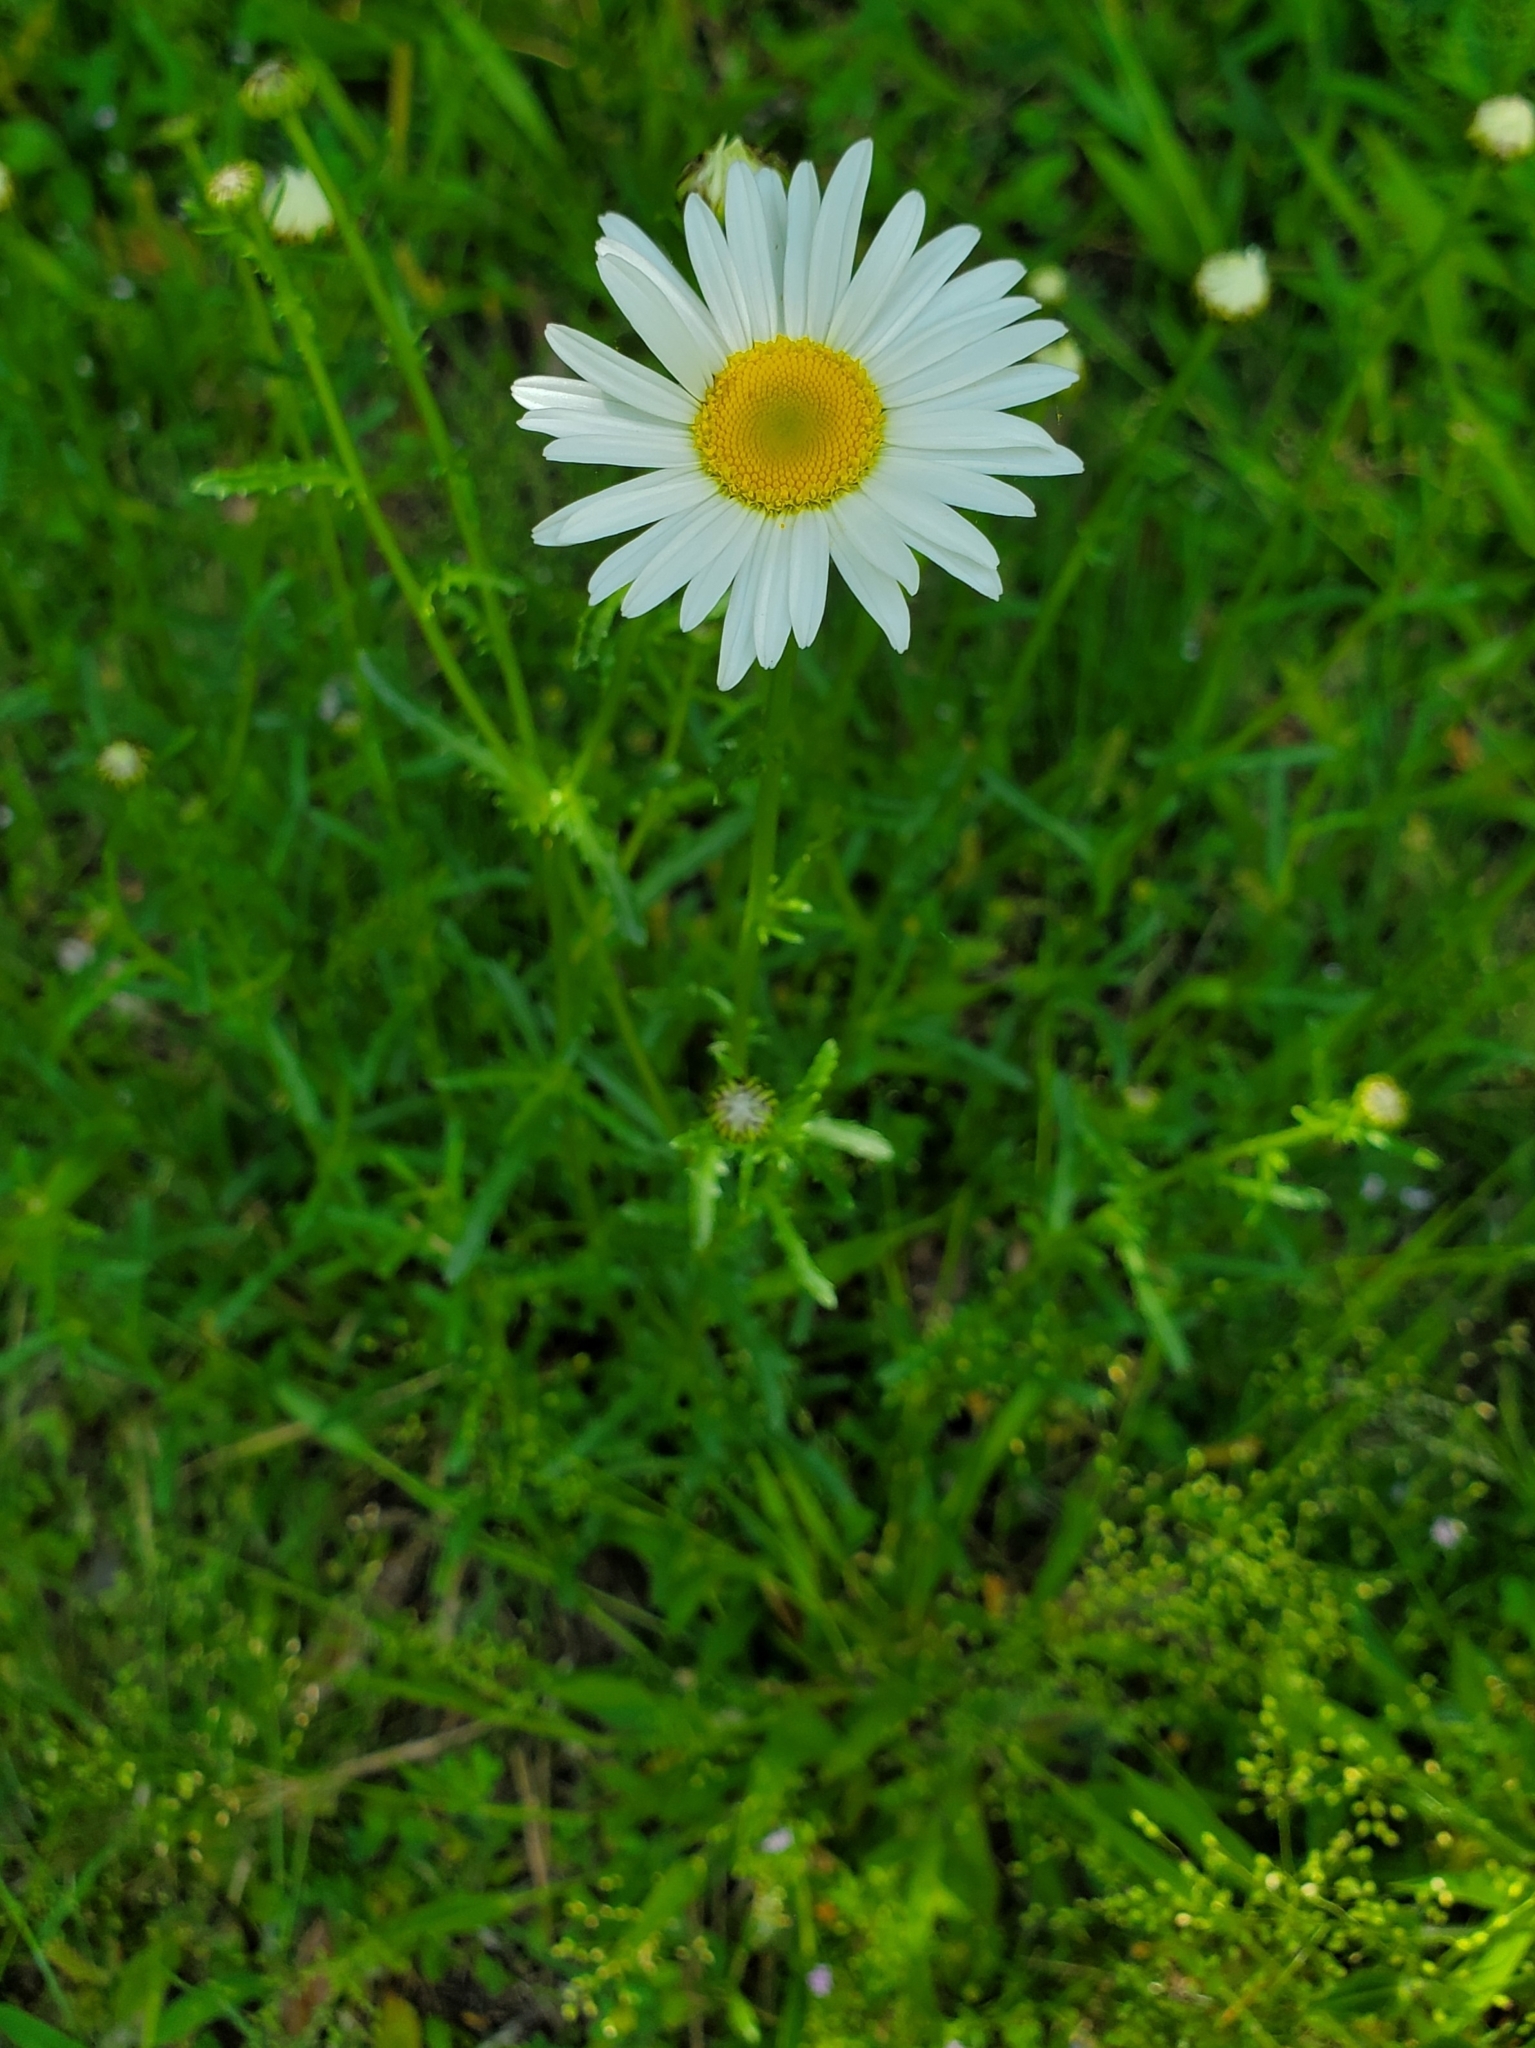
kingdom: Plantae
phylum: Tracheophyta
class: Magnoliopsida
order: Asterales
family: Asteraceae
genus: Leucanthemum
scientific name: Leucanthemum vulgare
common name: Oxeye daisy
